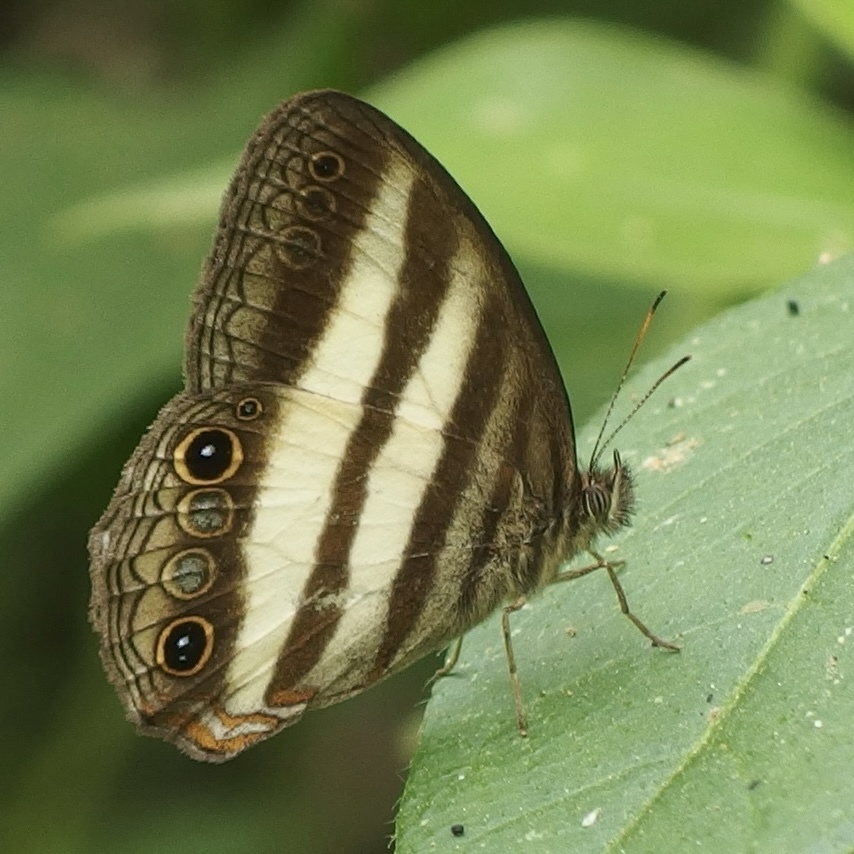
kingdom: Animalia
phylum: Arthropoda
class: Insecta
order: Lepidoptera
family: Nymphalidae
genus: Pareuptychia
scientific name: Pareuptychia hesione
